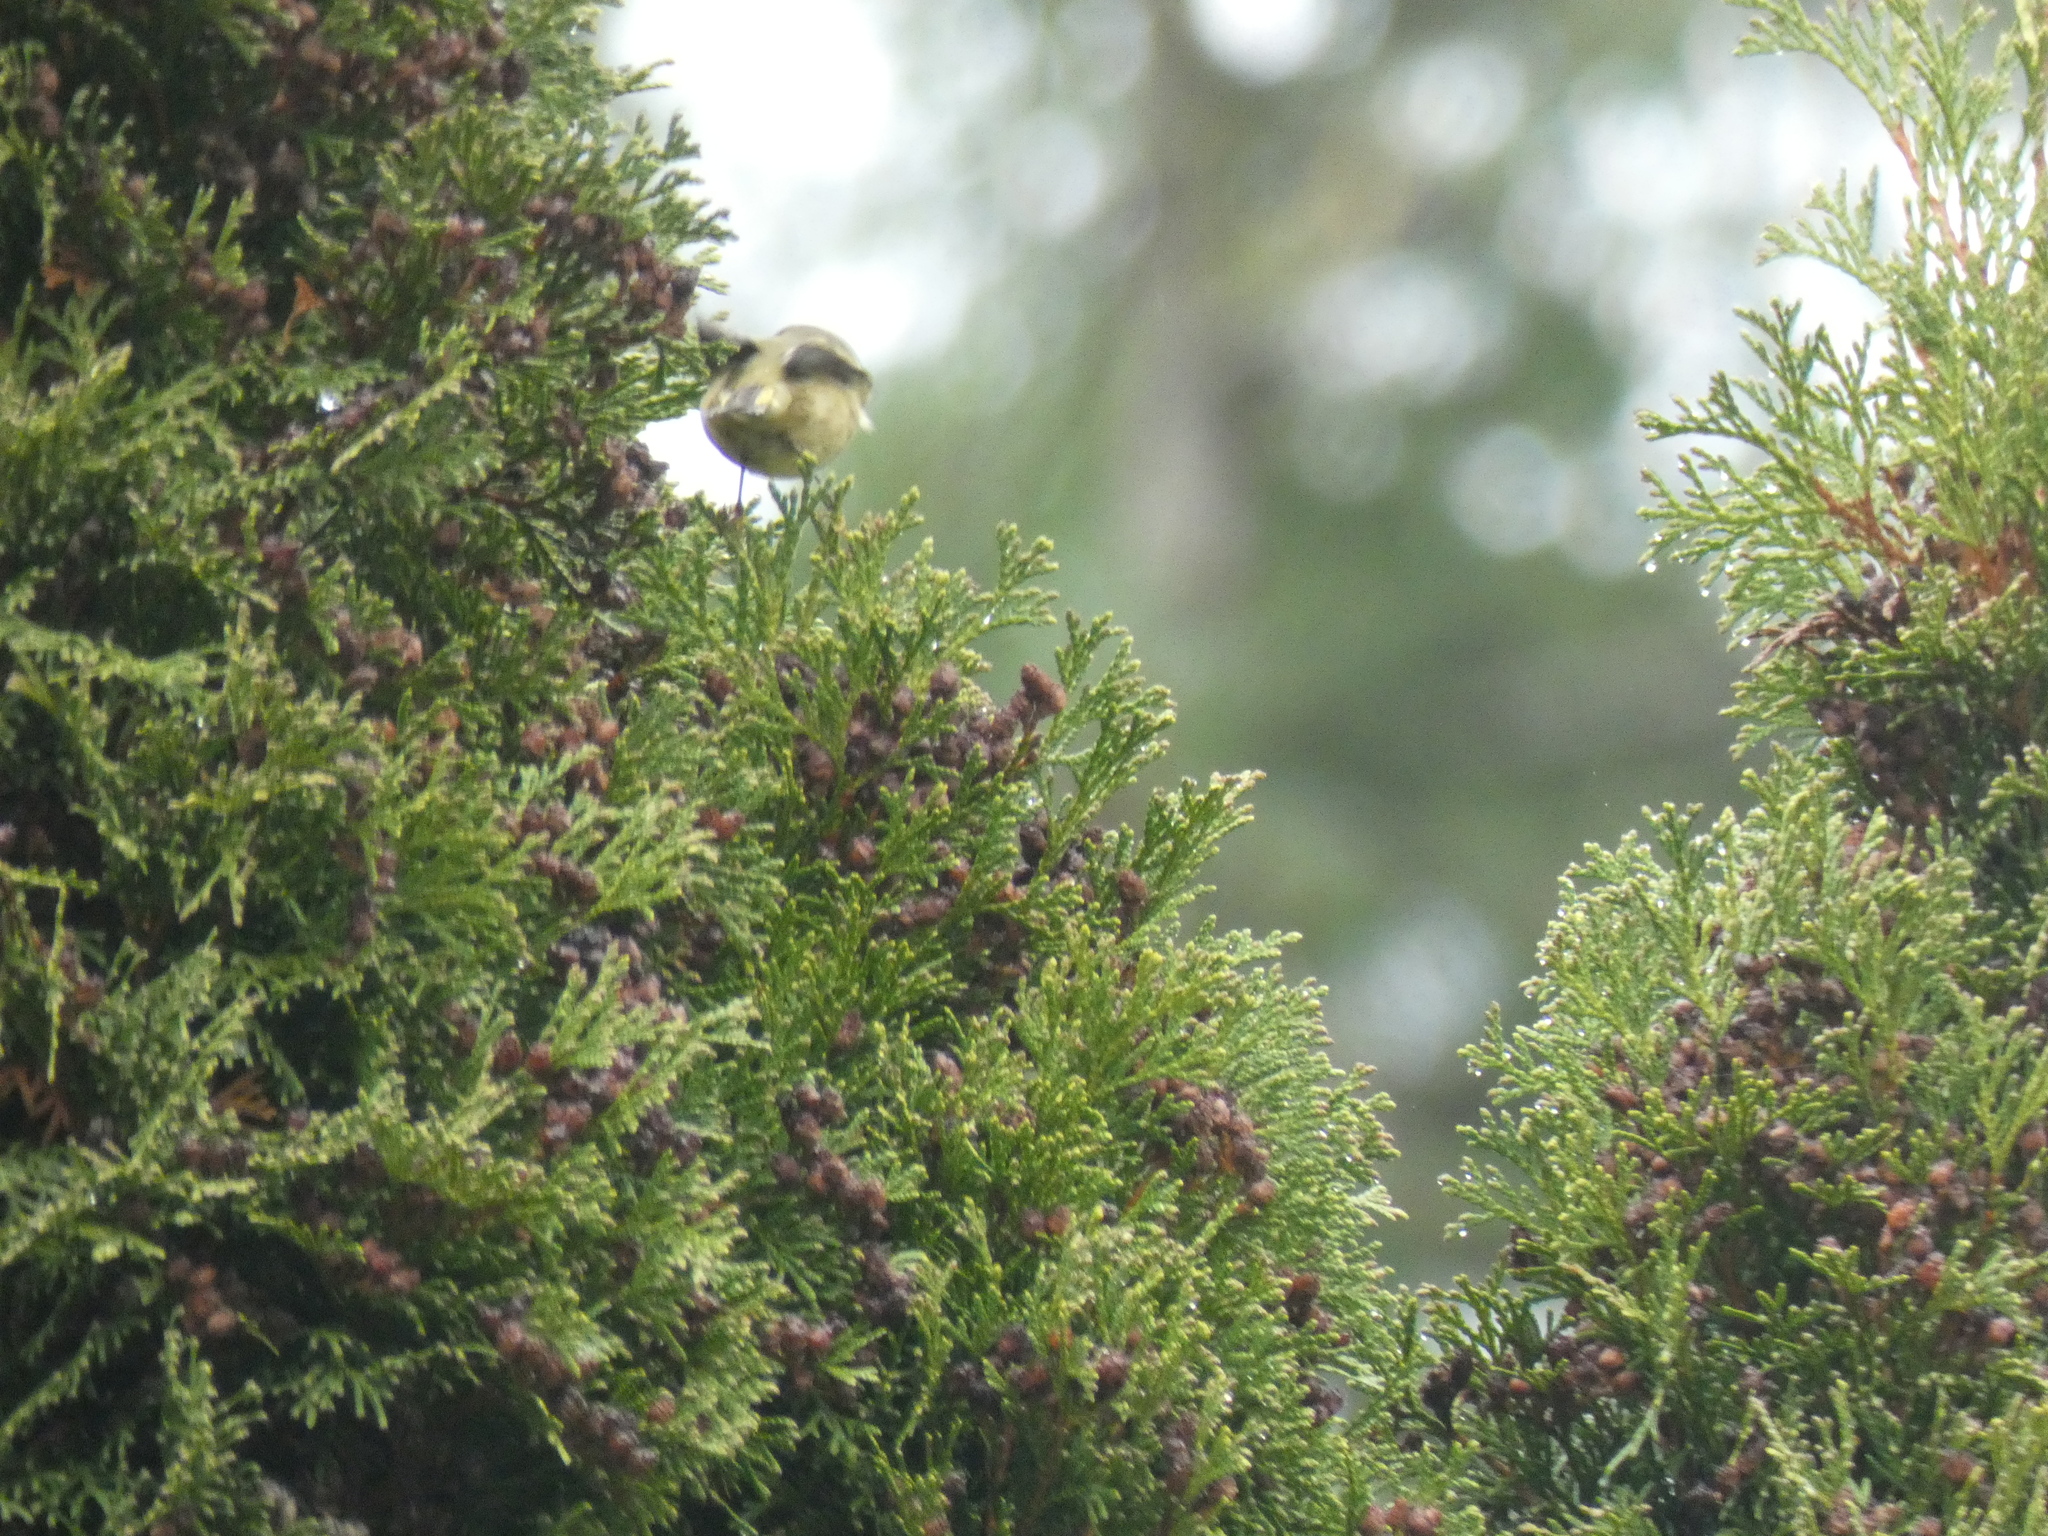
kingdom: Animalia
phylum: Chordata
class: Aves
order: Passeriformes
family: Regulidae
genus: Regulus
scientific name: Regulus calendula
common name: Ruby-crowned kinglet
